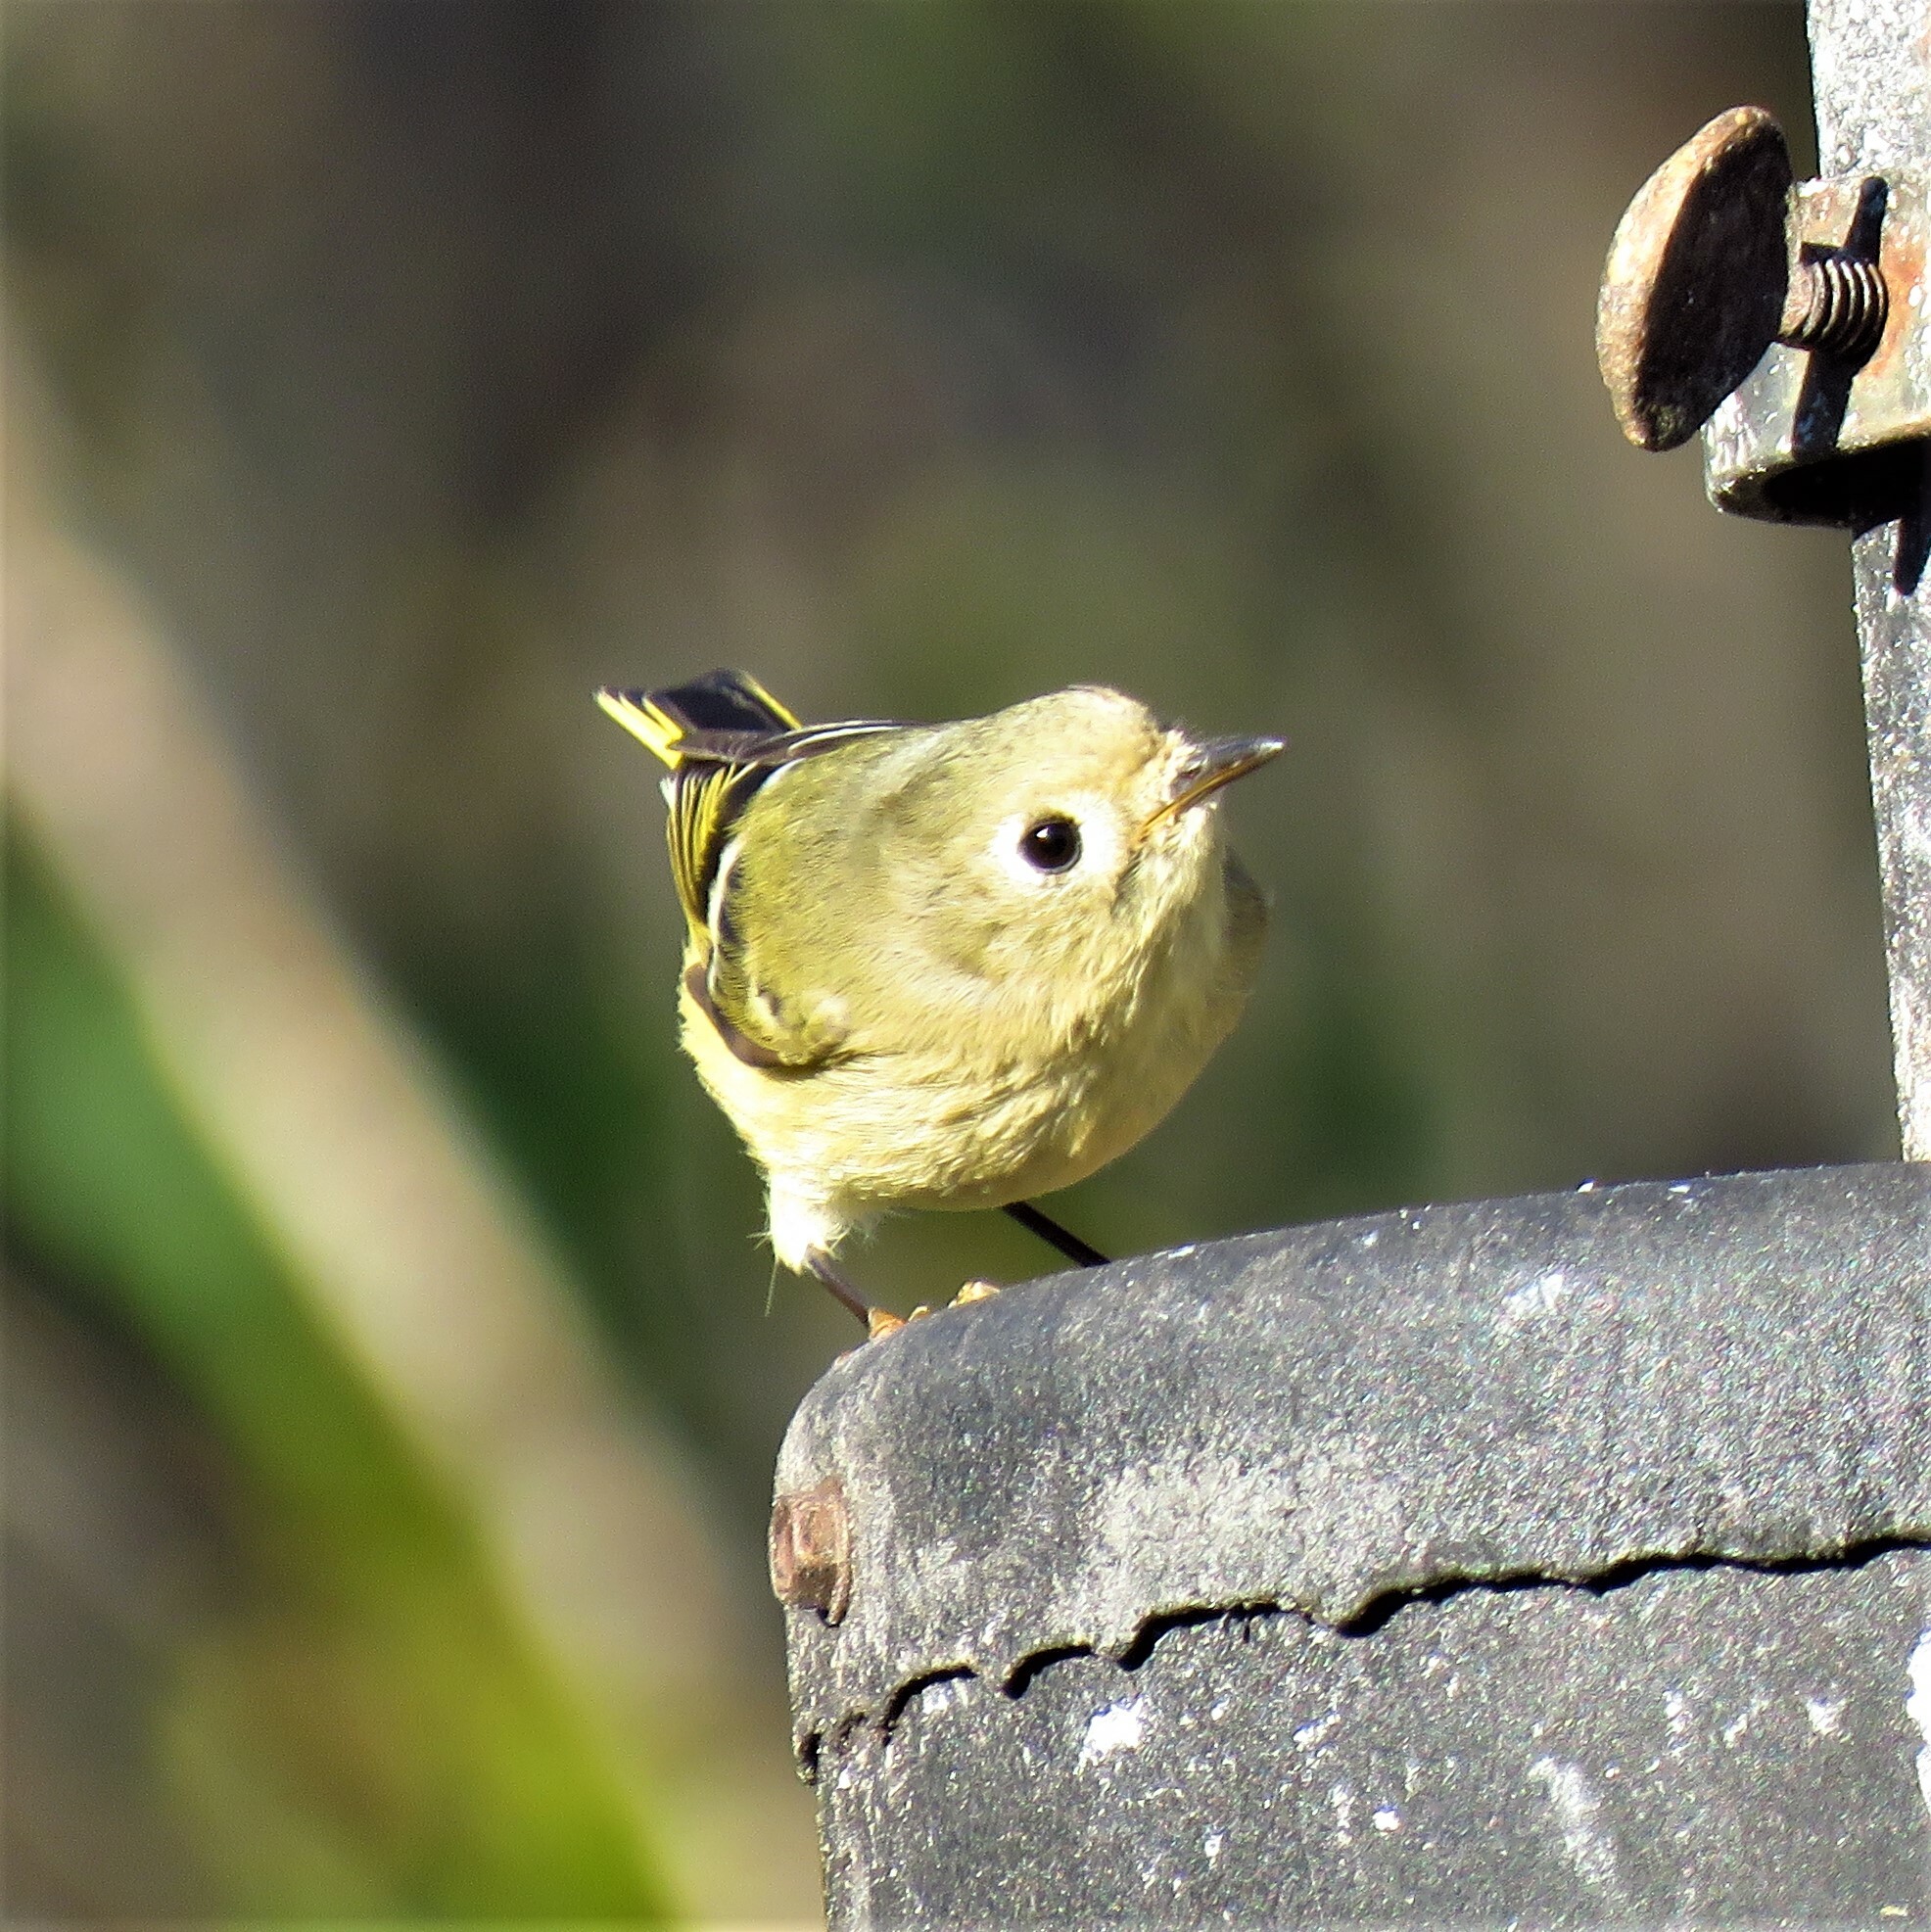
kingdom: Animalia
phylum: Chordata
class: Aves
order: Passeriformes
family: Regulidae
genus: Regulus
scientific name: Regulus calendula
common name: Ruby-crowned kinglet
